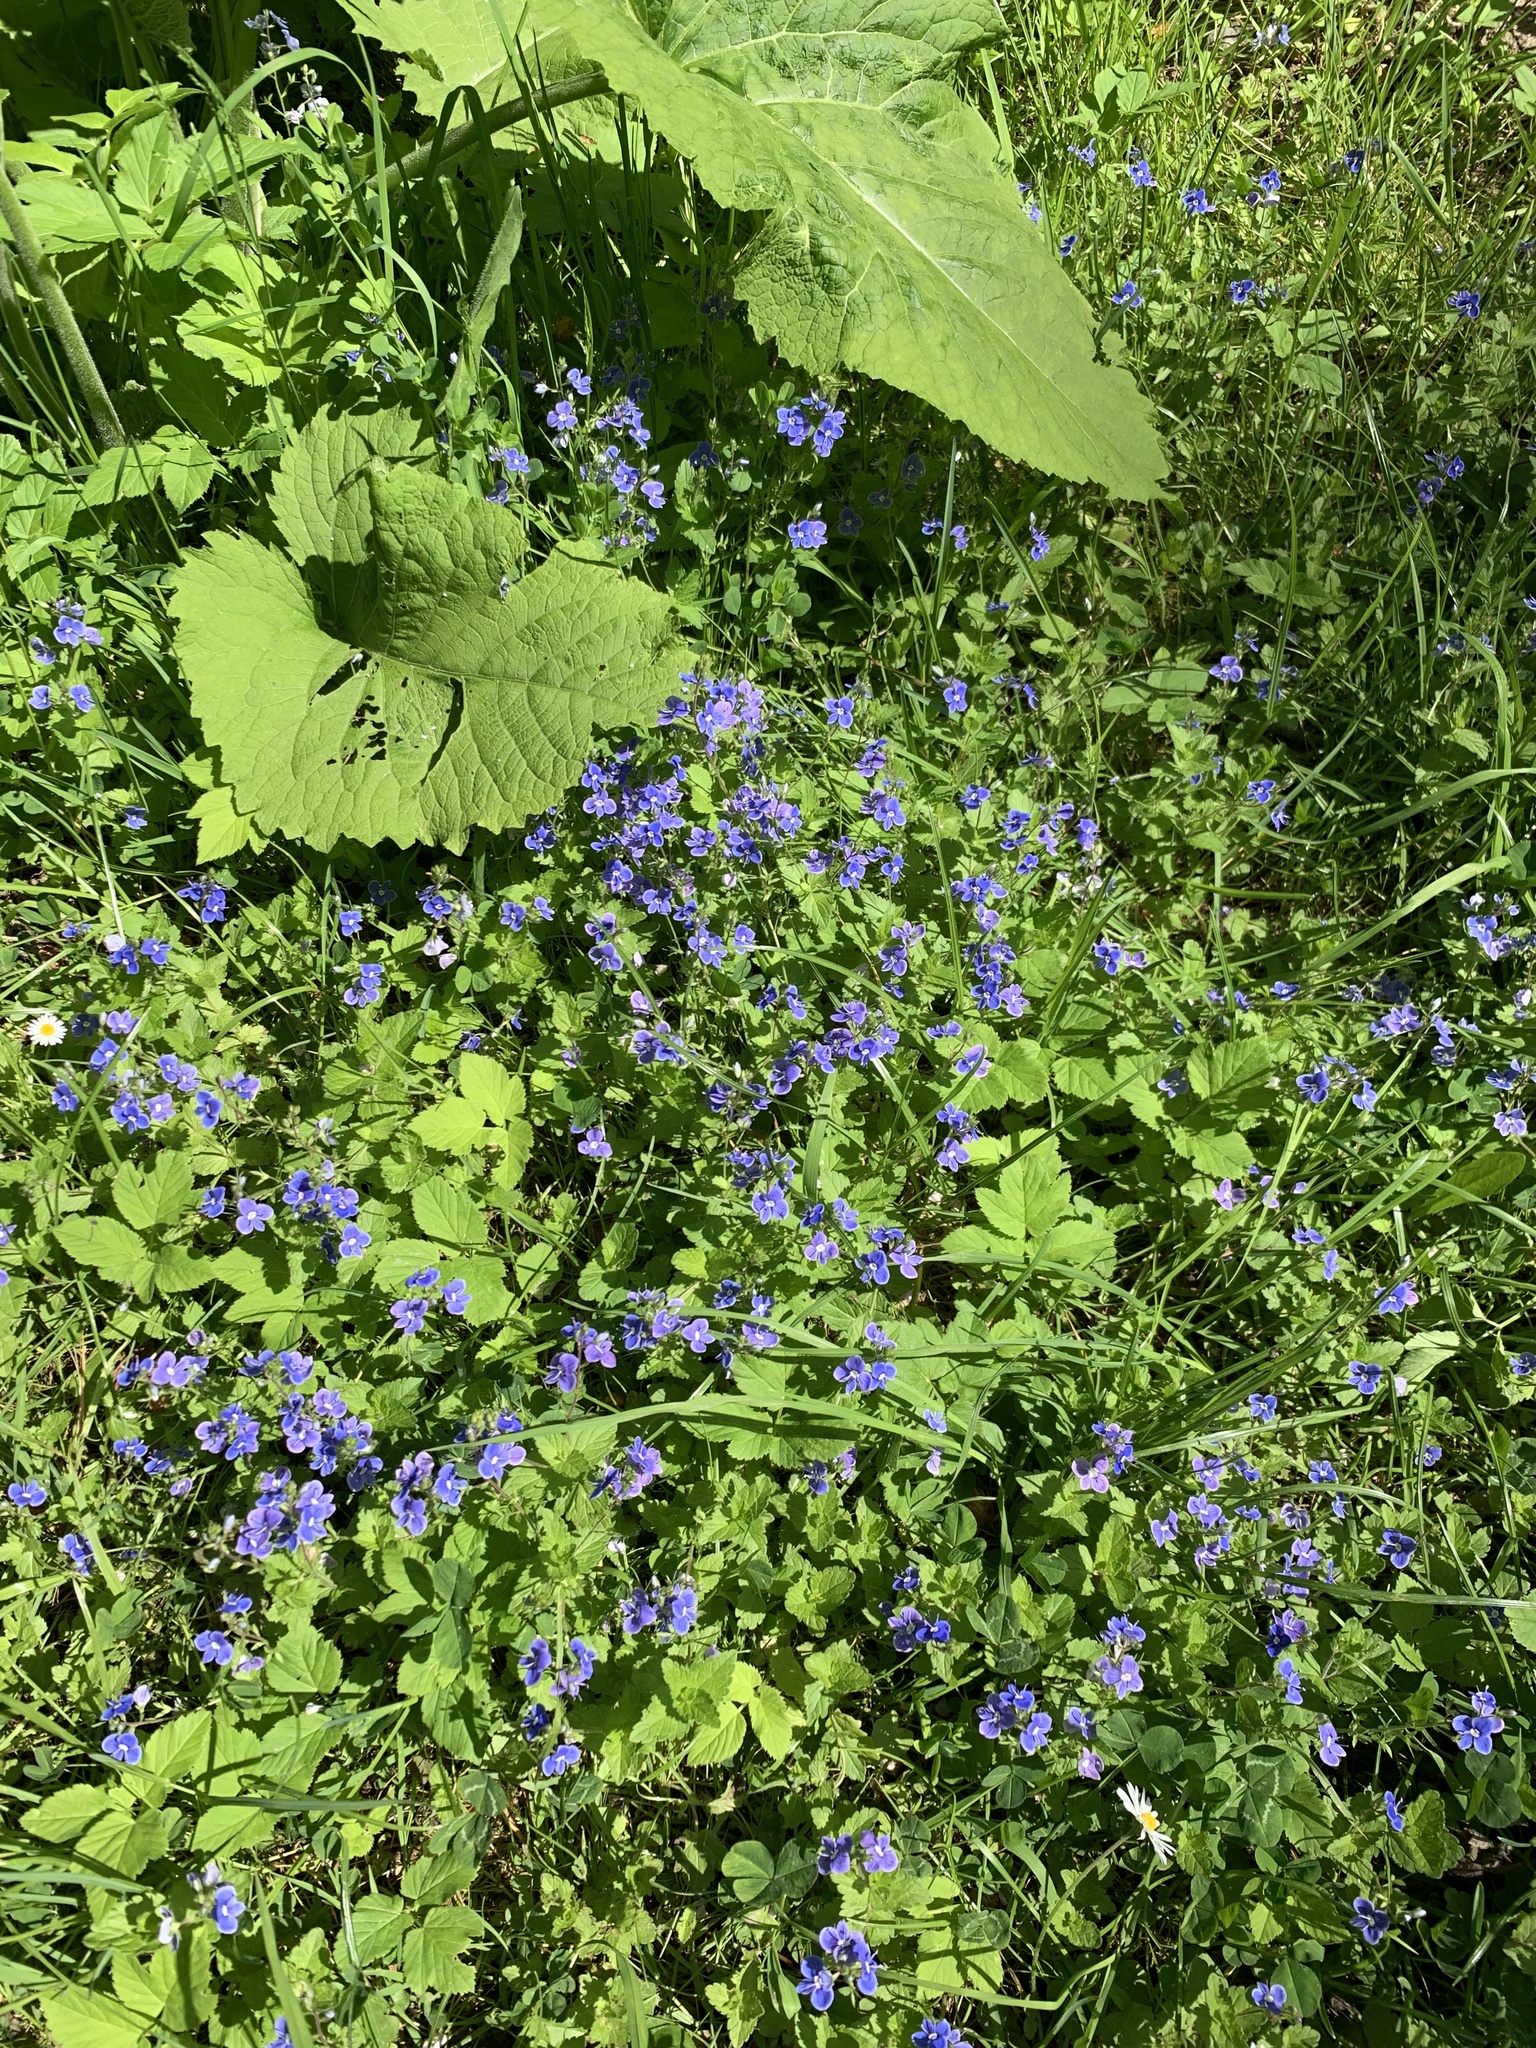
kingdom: Plantae
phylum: Tracheophyta
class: Magnoliopsida
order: Lamiales
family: Plantaginaceae
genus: Veronica
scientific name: Veronica chamaedrys
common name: Germander speedwell
